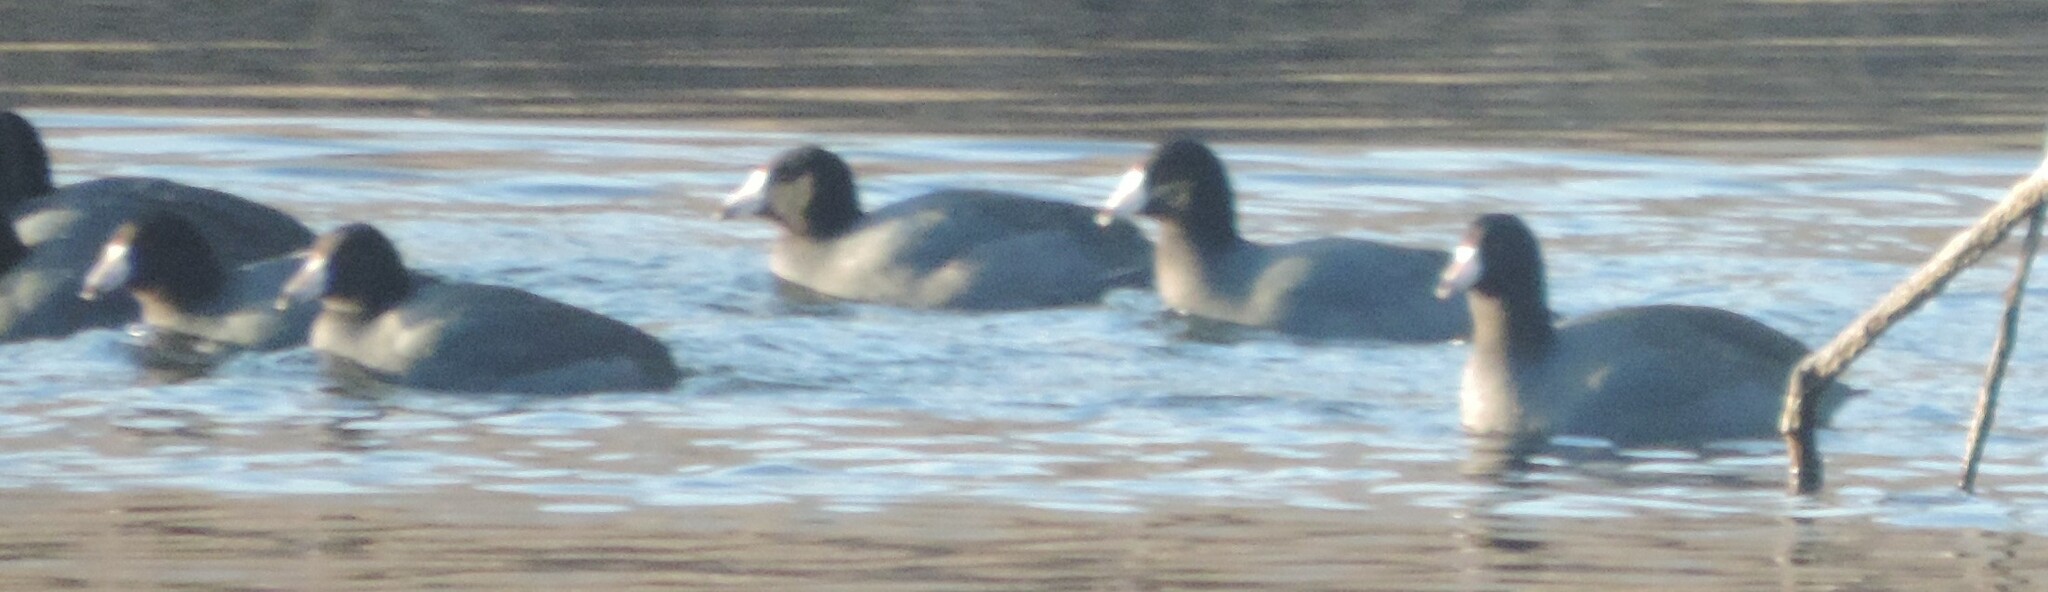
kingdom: Animalia
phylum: Chordata
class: Aves
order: Gruiformes
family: Rallidae
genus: Fulica
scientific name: Fulica americana
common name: American coot
